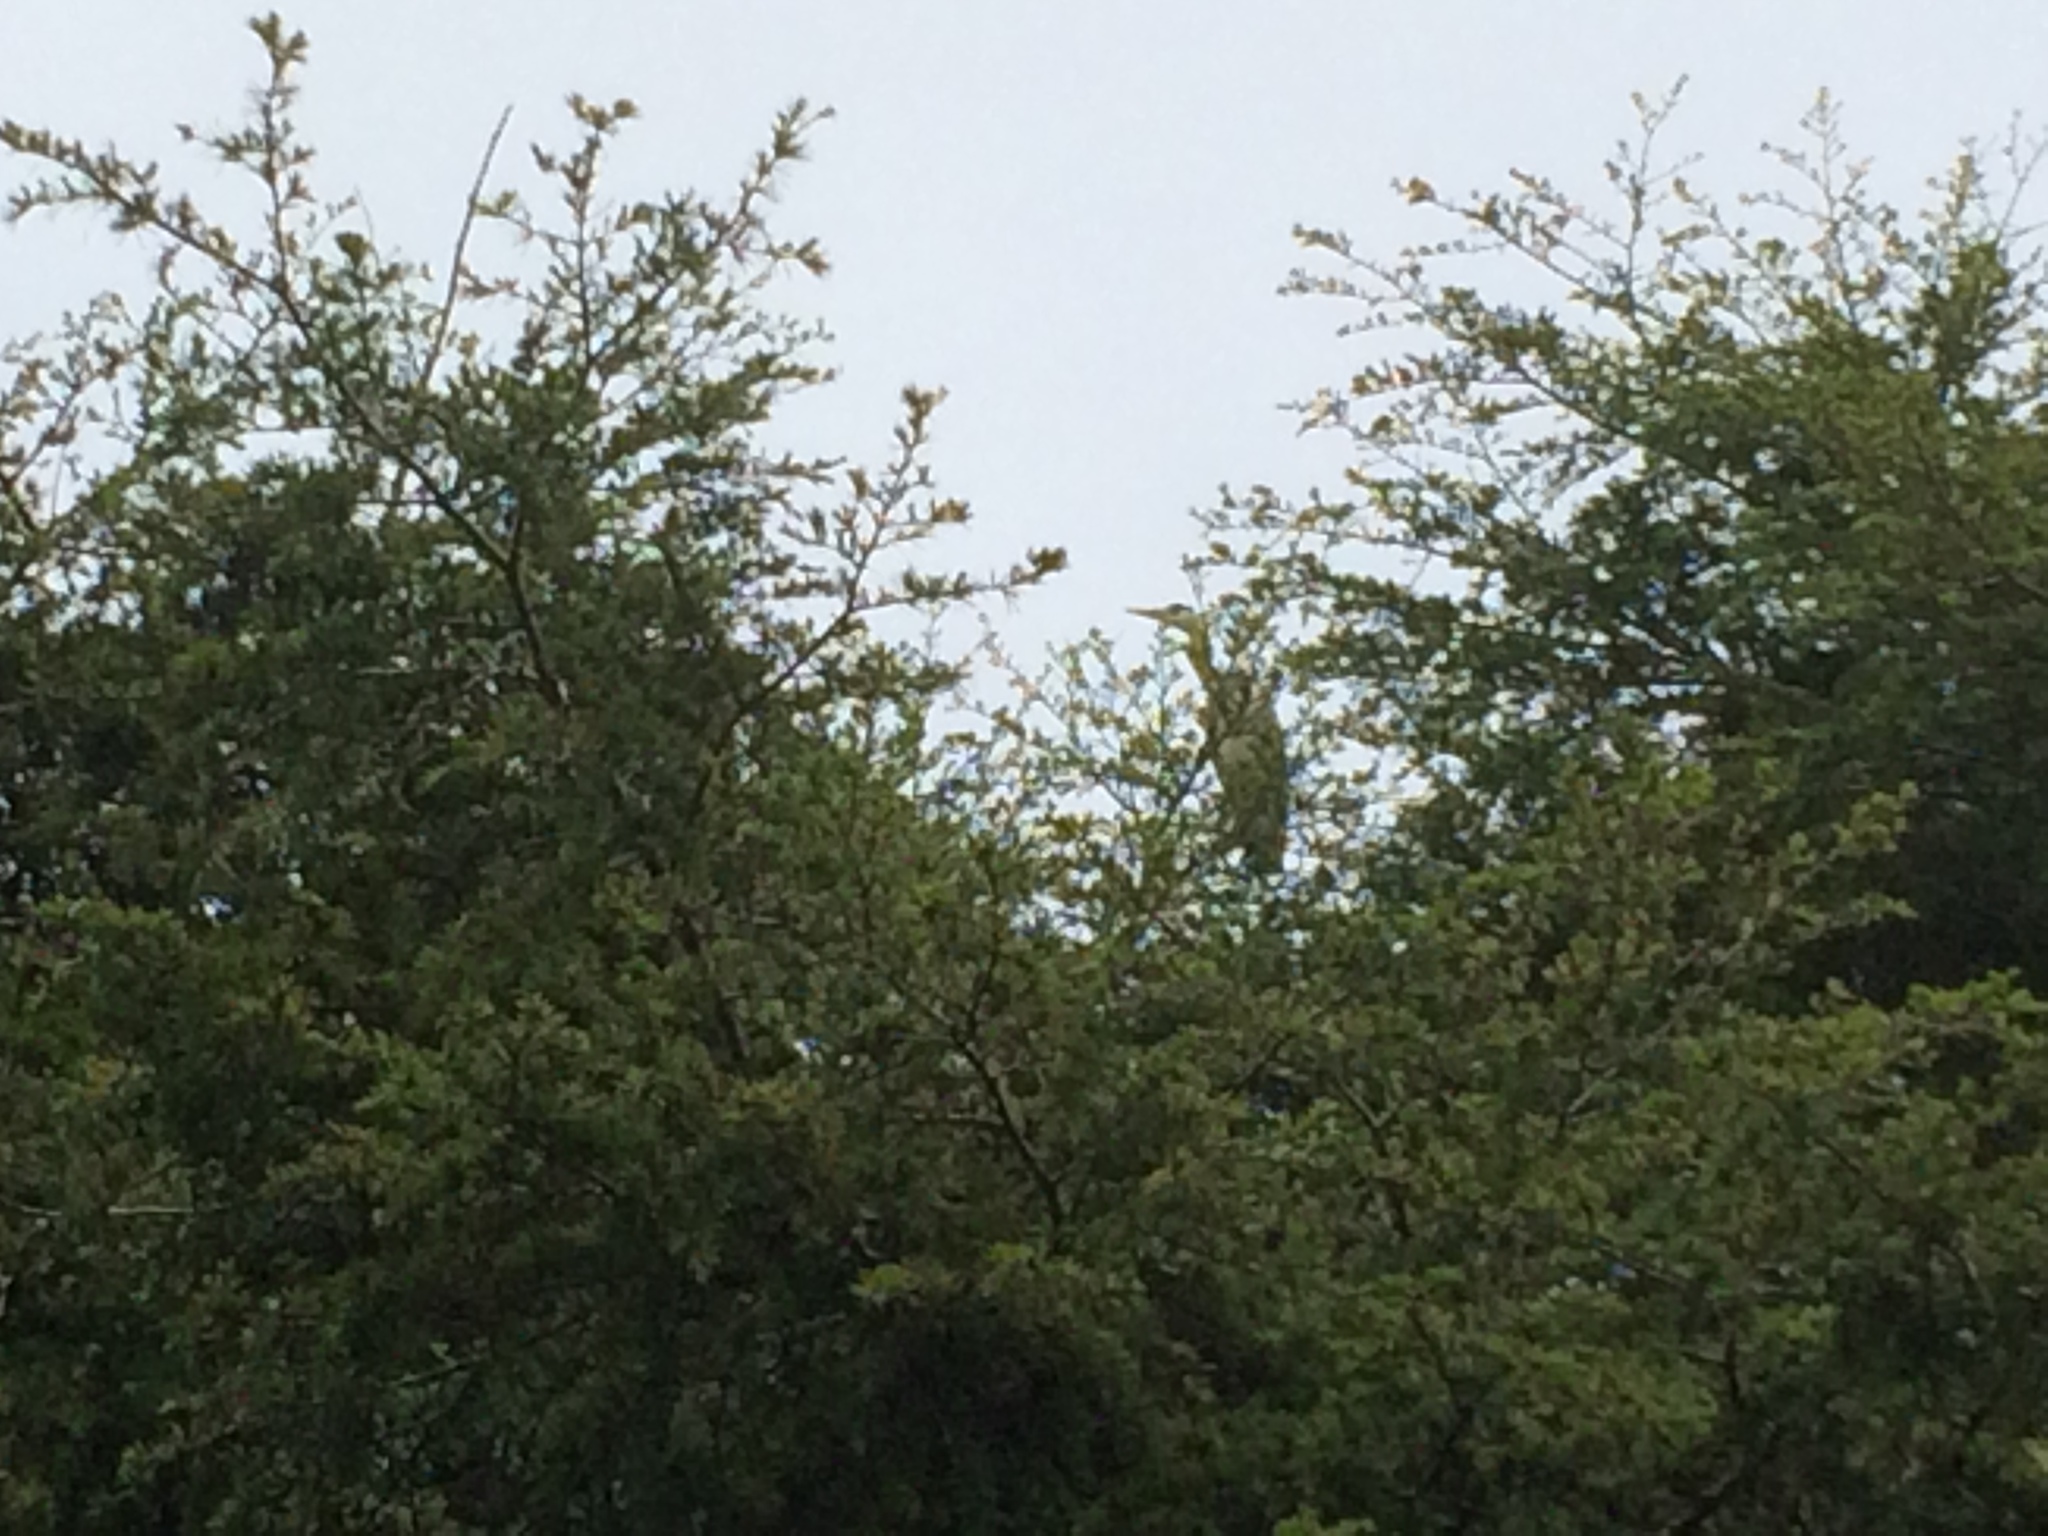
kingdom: Animalia
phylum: Chordata
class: Aves
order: Pelecaniformes
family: Ardeidae
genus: Ardea
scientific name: Ardea cinerea
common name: Grey heron
